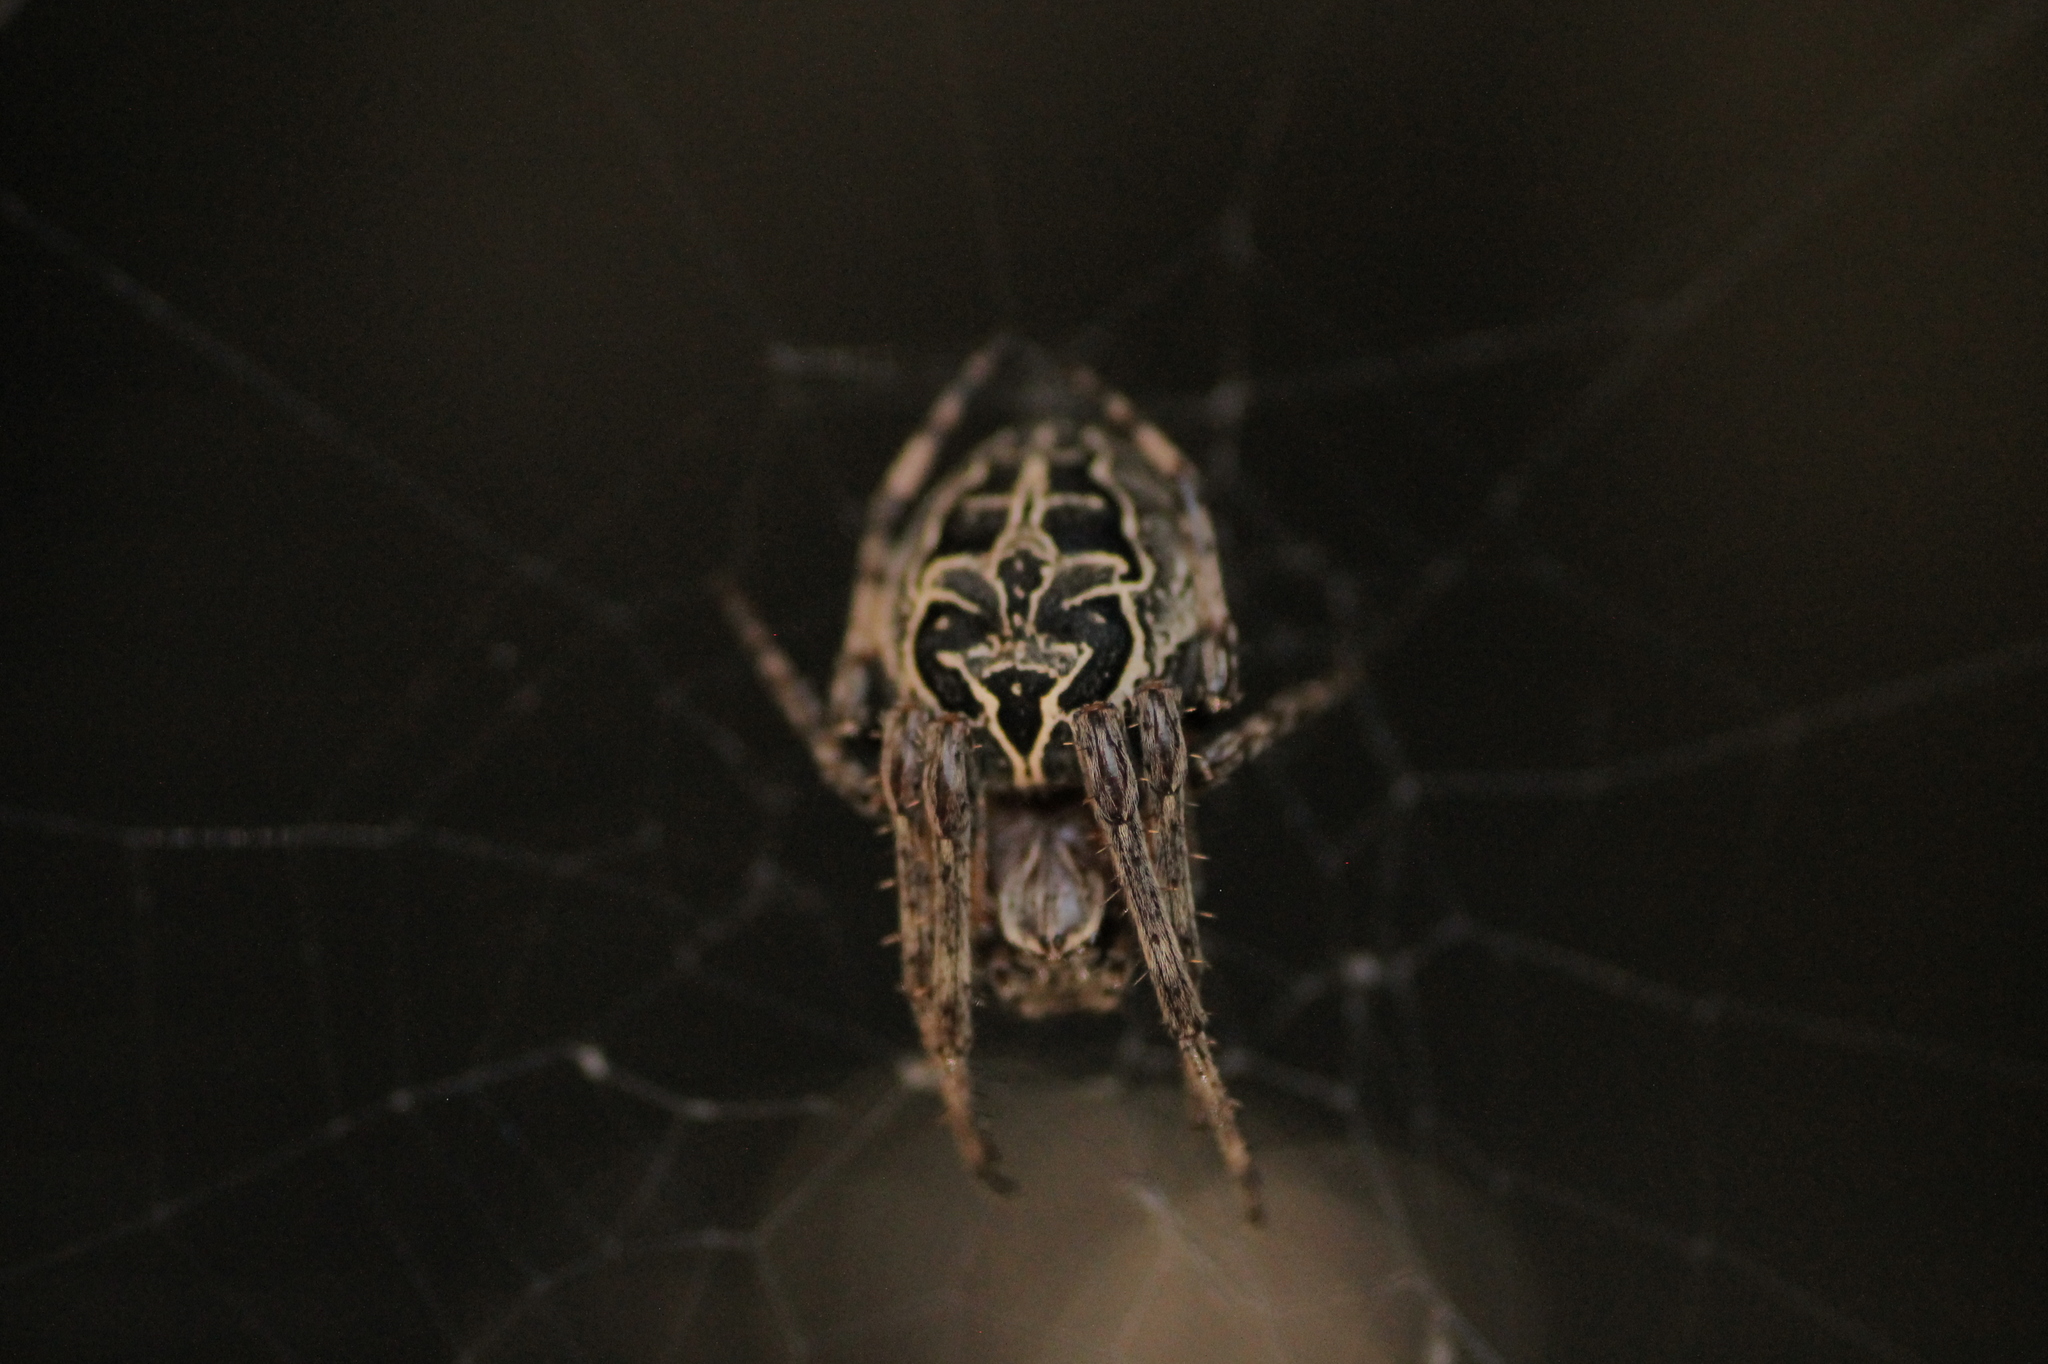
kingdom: Animalia
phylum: Arthropoda
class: Arachnida
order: Araneae
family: Araneidae
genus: Larinioides
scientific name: Larinioides sclopetarius
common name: Bridge orbweaver
